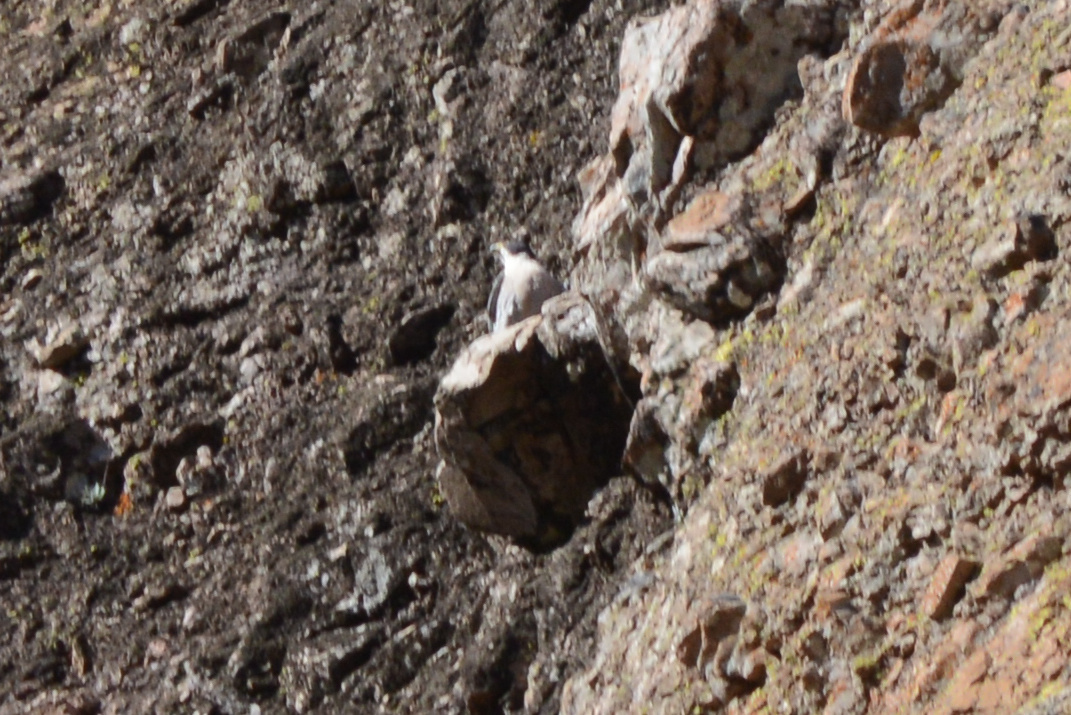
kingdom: Animalia
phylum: Chordata
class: Aves
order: Falconiformes
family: Falconidae
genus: Falco
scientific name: Falco peregrinus
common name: Peregrine falcon
